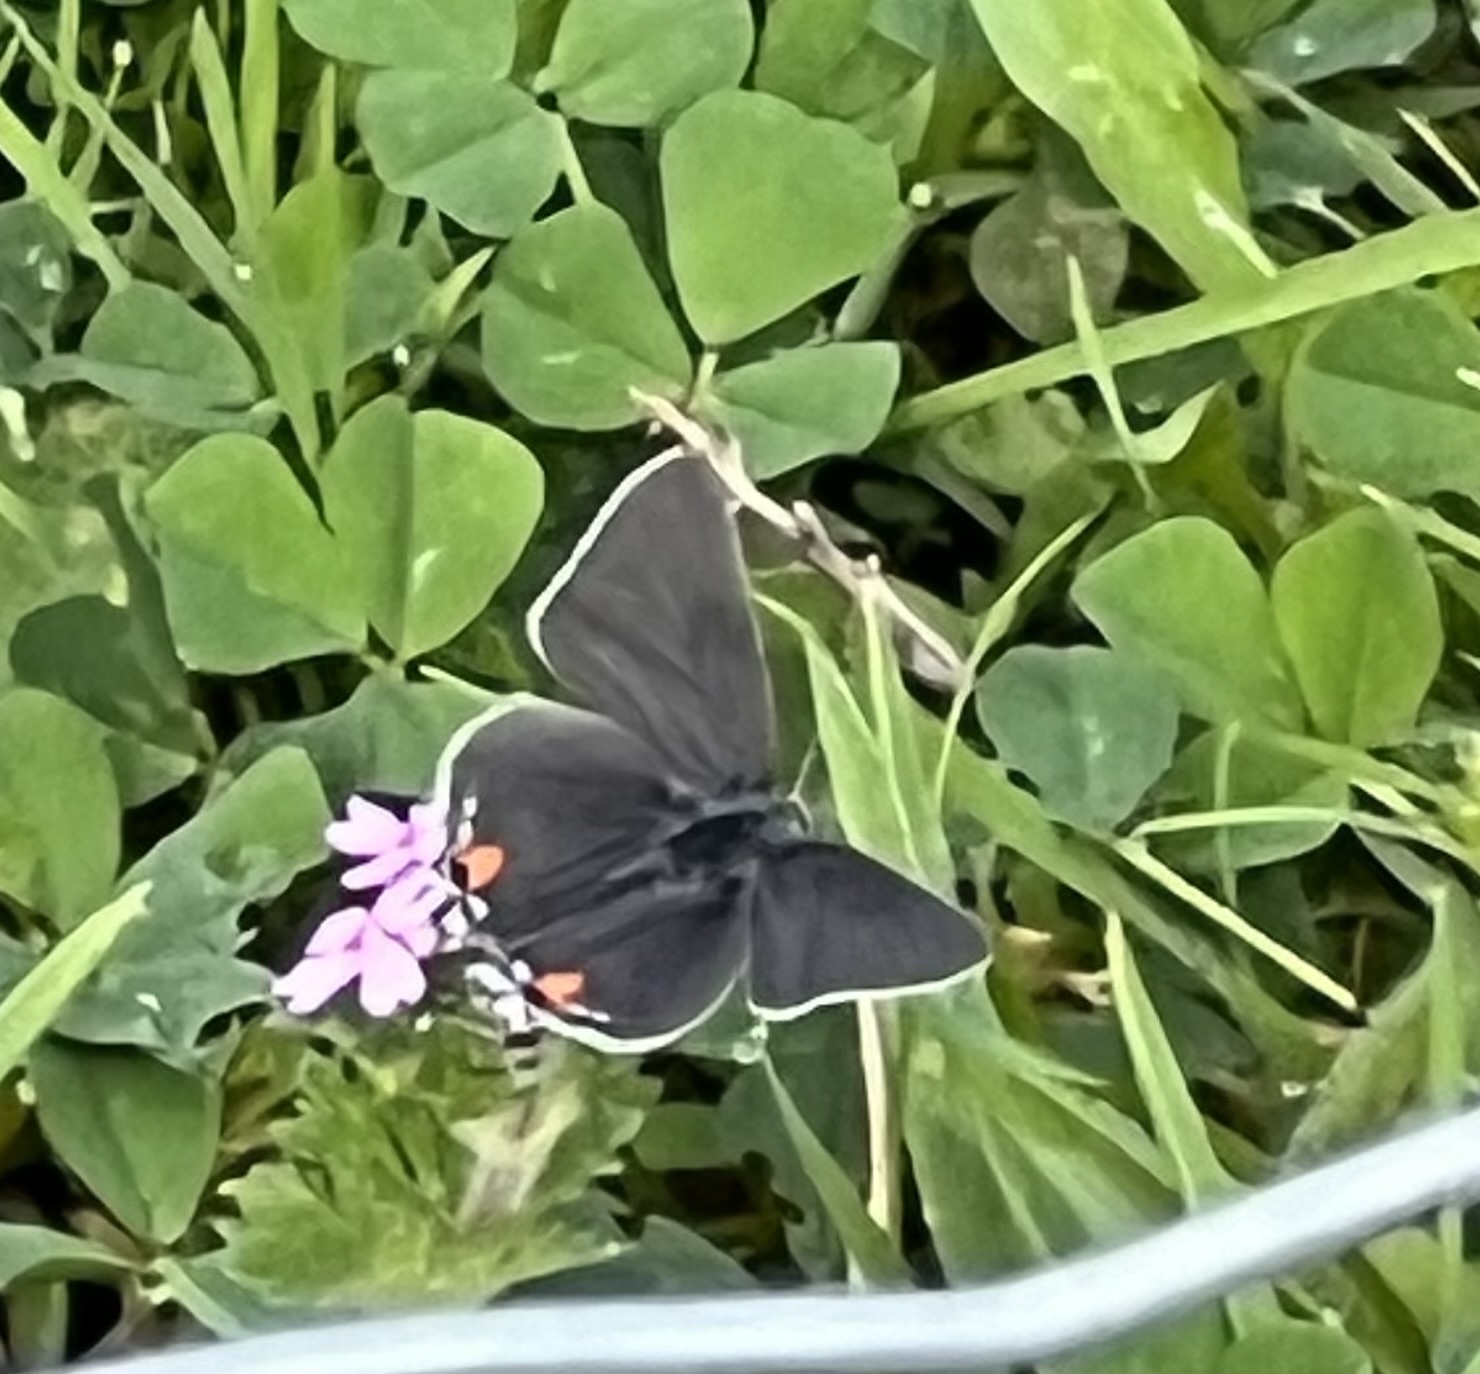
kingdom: Animalia
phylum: Arthropoda
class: Insecta
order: Lepidoptera
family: Lycaenidae
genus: Strymon
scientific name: Strymon melinus
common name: Gray hairstreak
